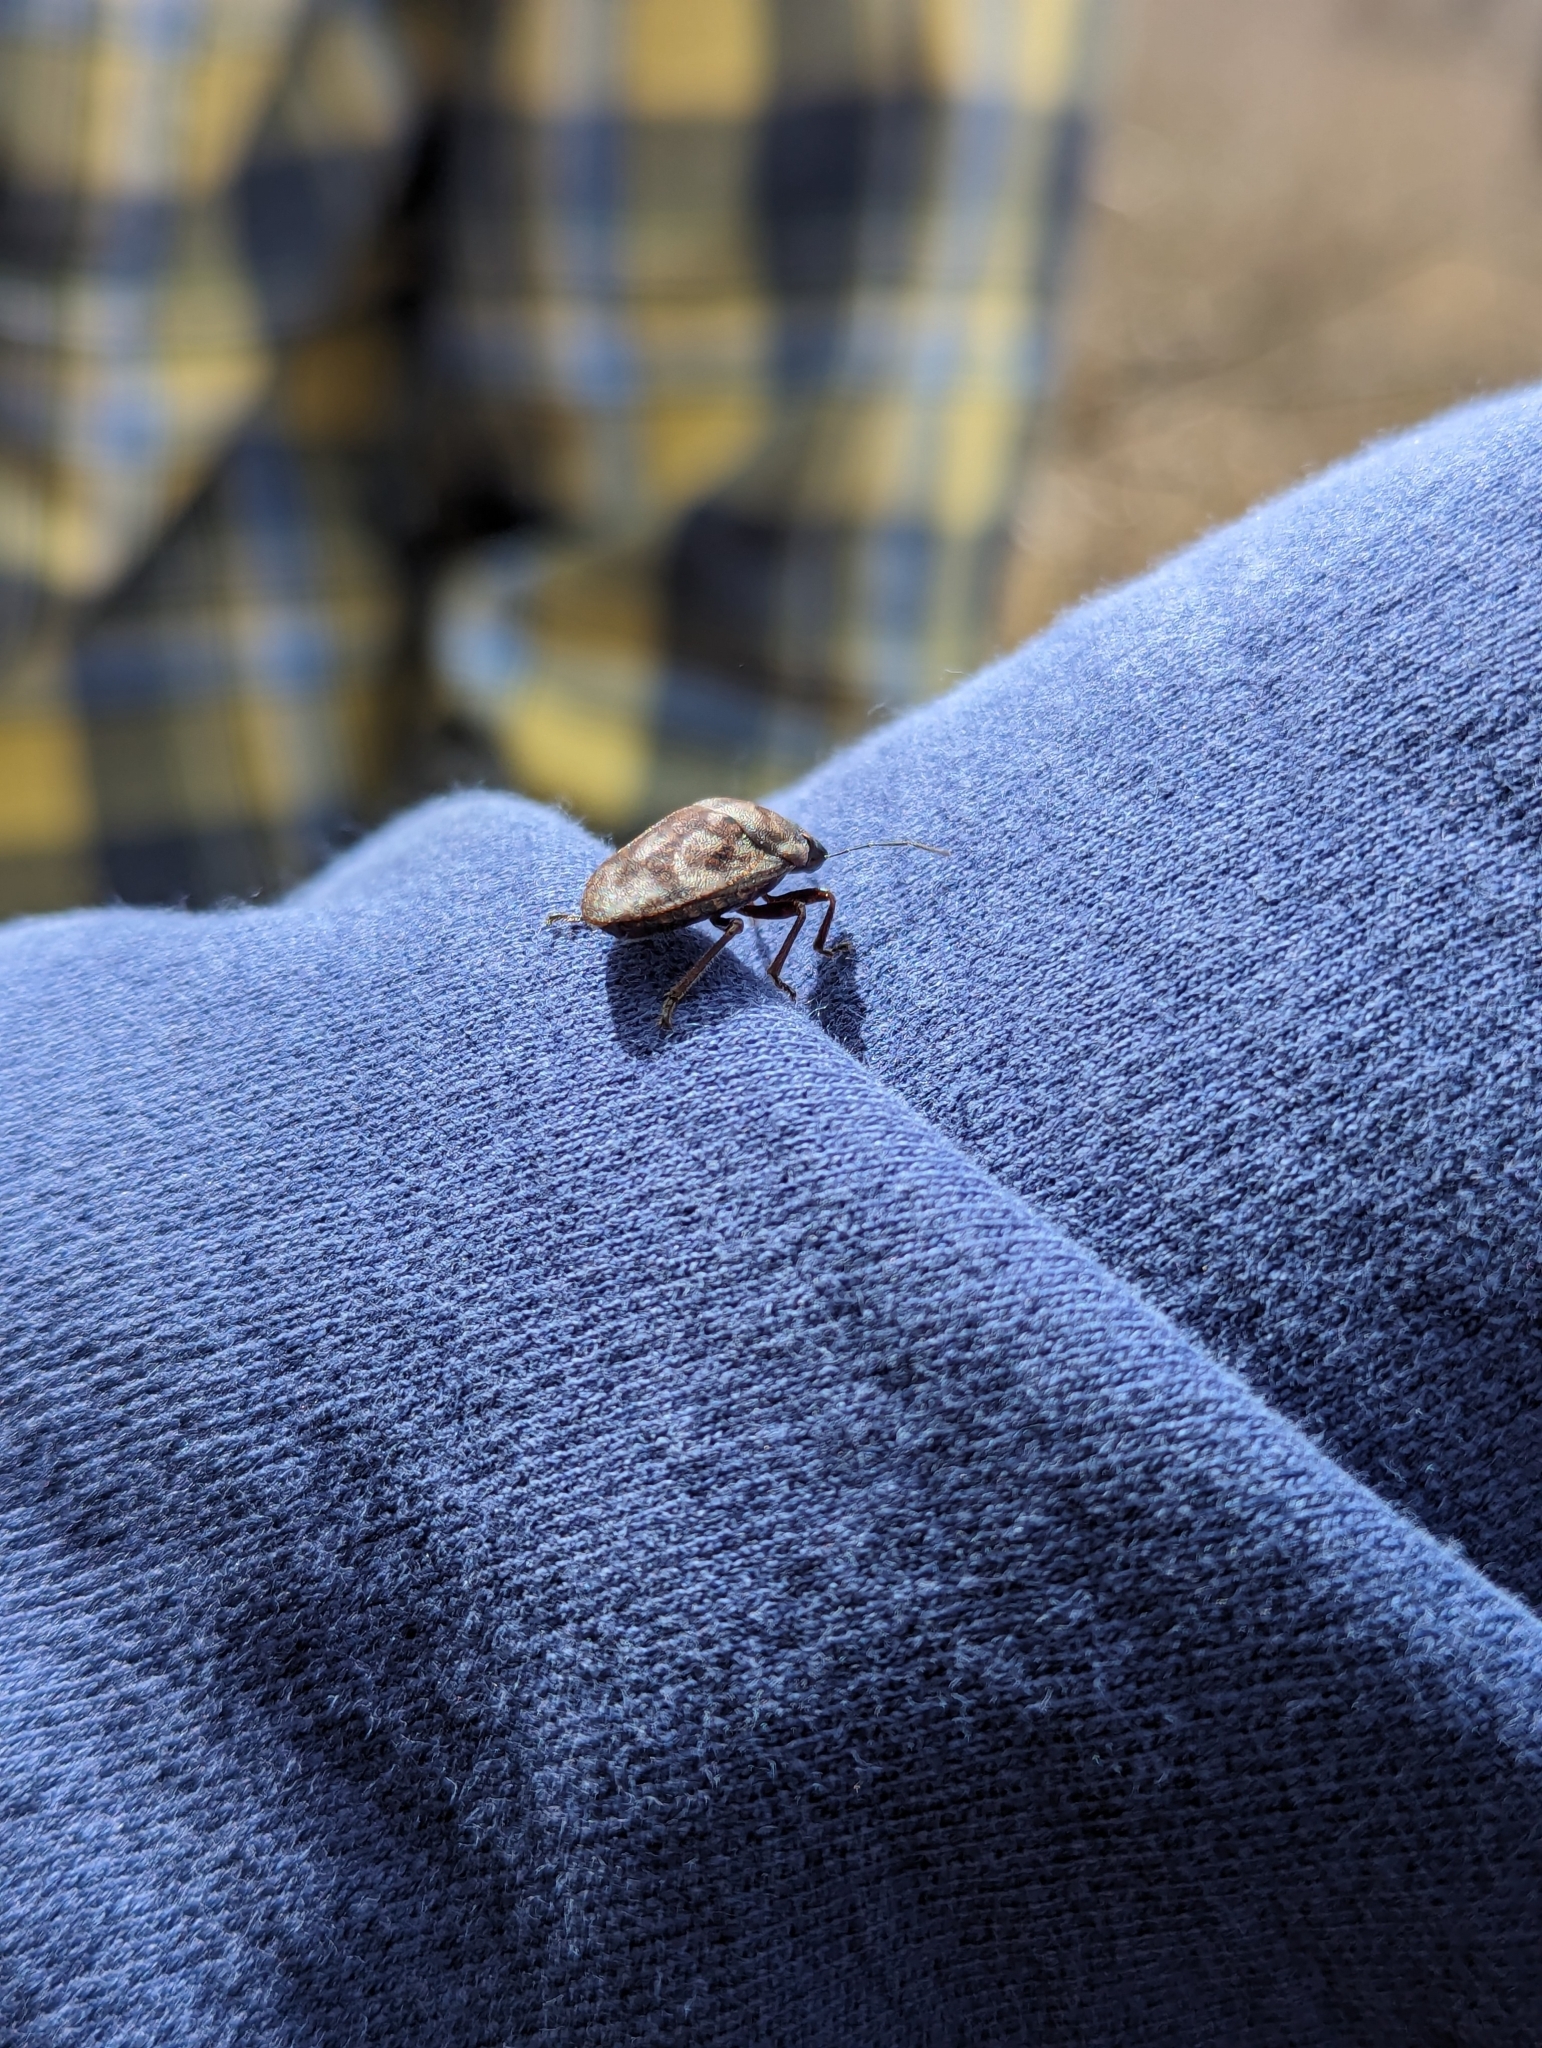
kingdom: Animalia
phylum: Arthropoda
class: Insecta
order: Hemiptera
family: Scutelleridae
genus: Tetyra
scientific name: Tetyra bipunctata
